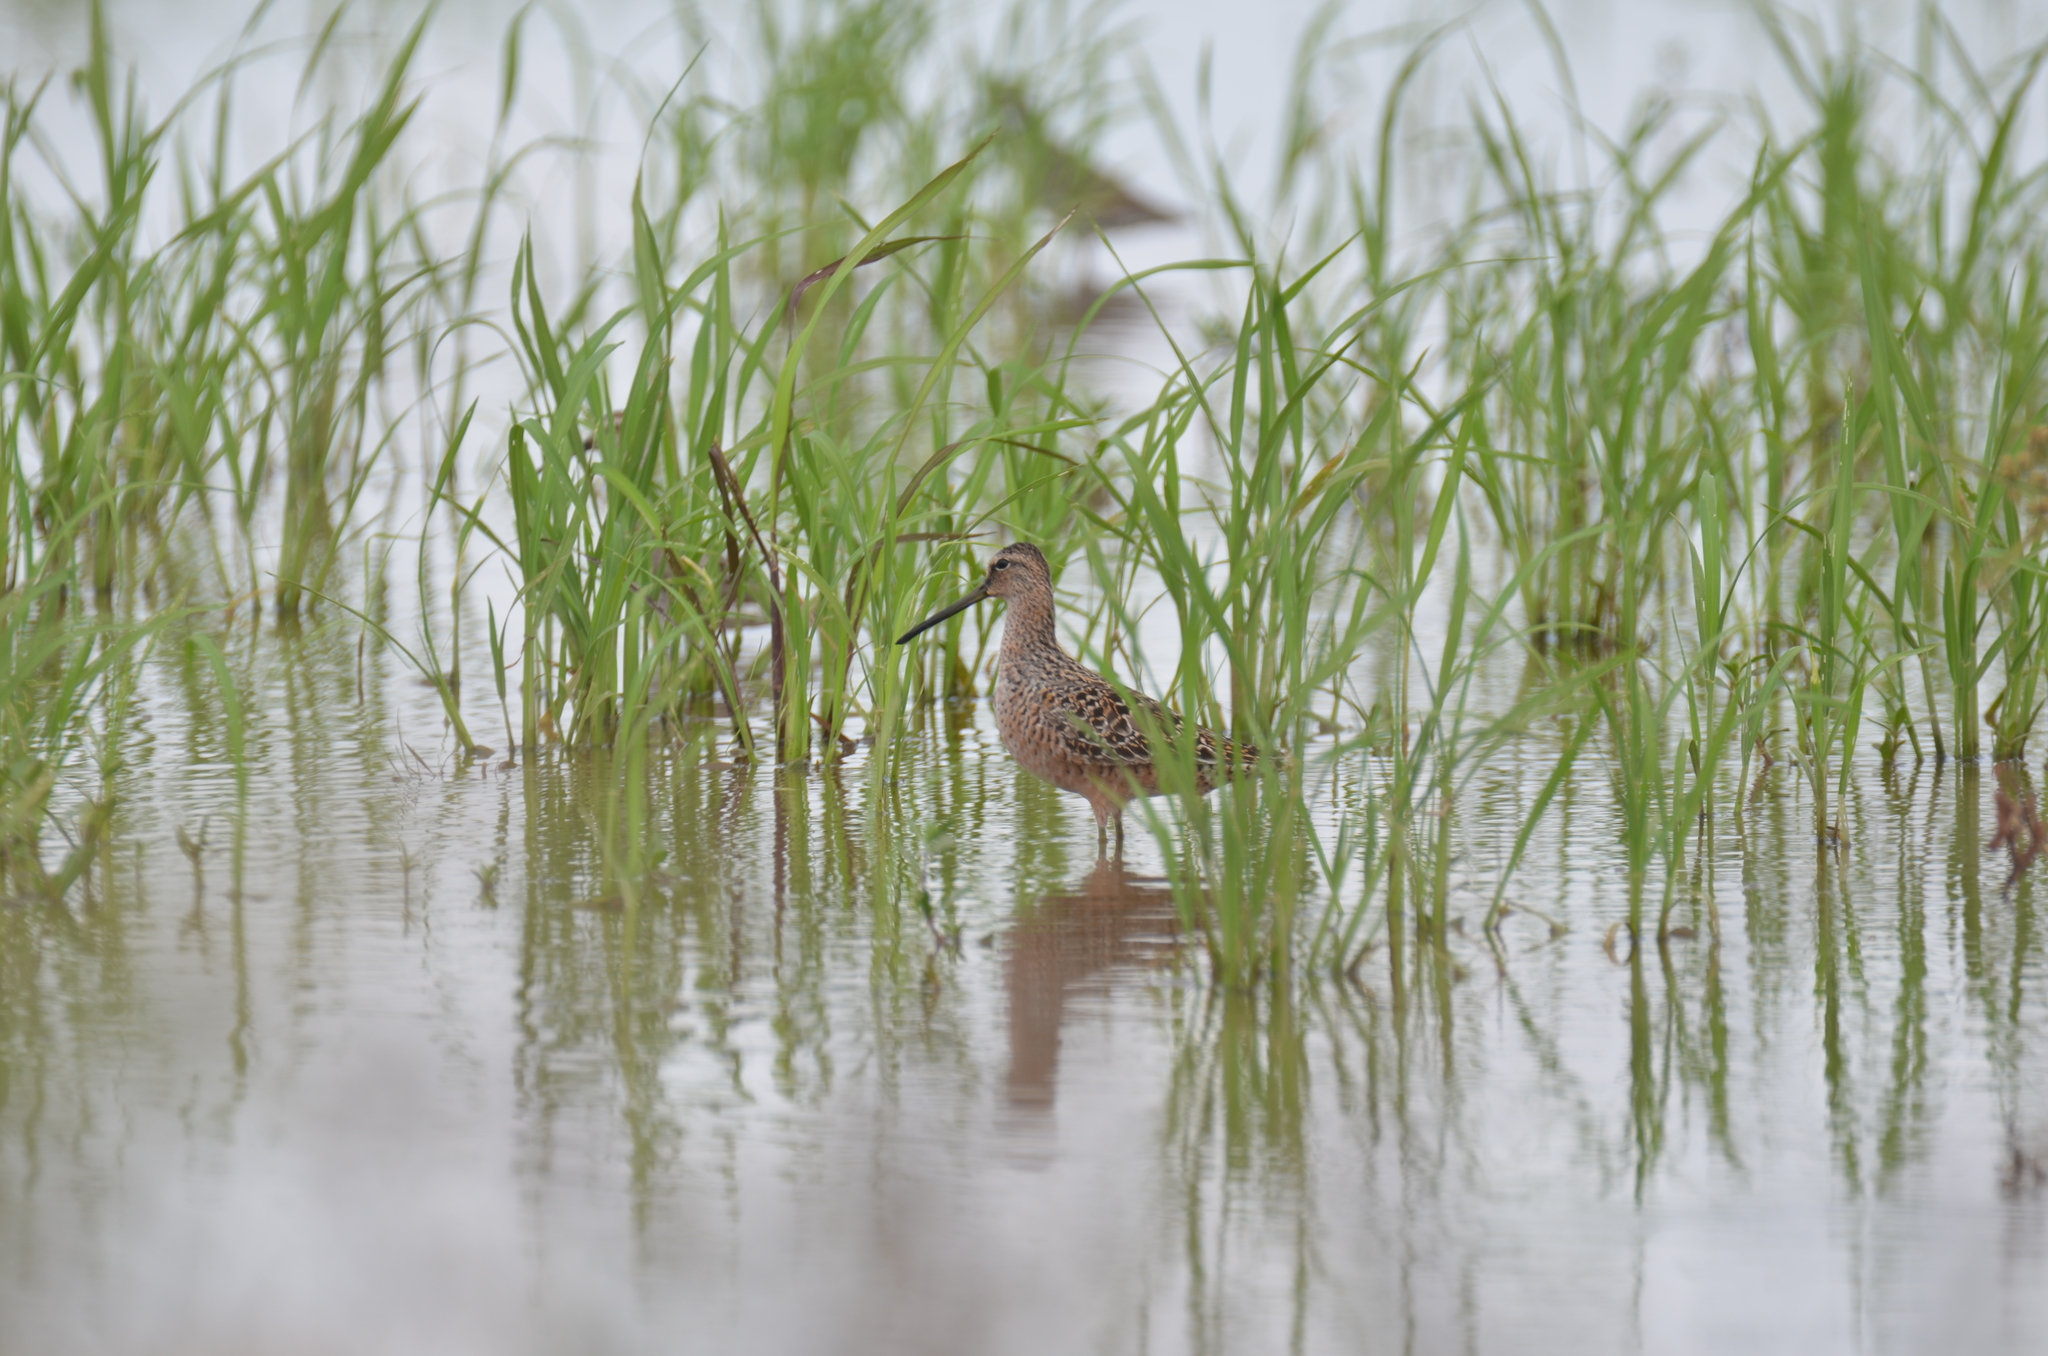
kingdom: Animalia
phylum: Chordata
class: Aves
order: Charadriiformes
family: Scolopacidae
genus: Limnodromus
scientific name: Limnodromus scolopaceus
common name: Long-billed dowitcher
